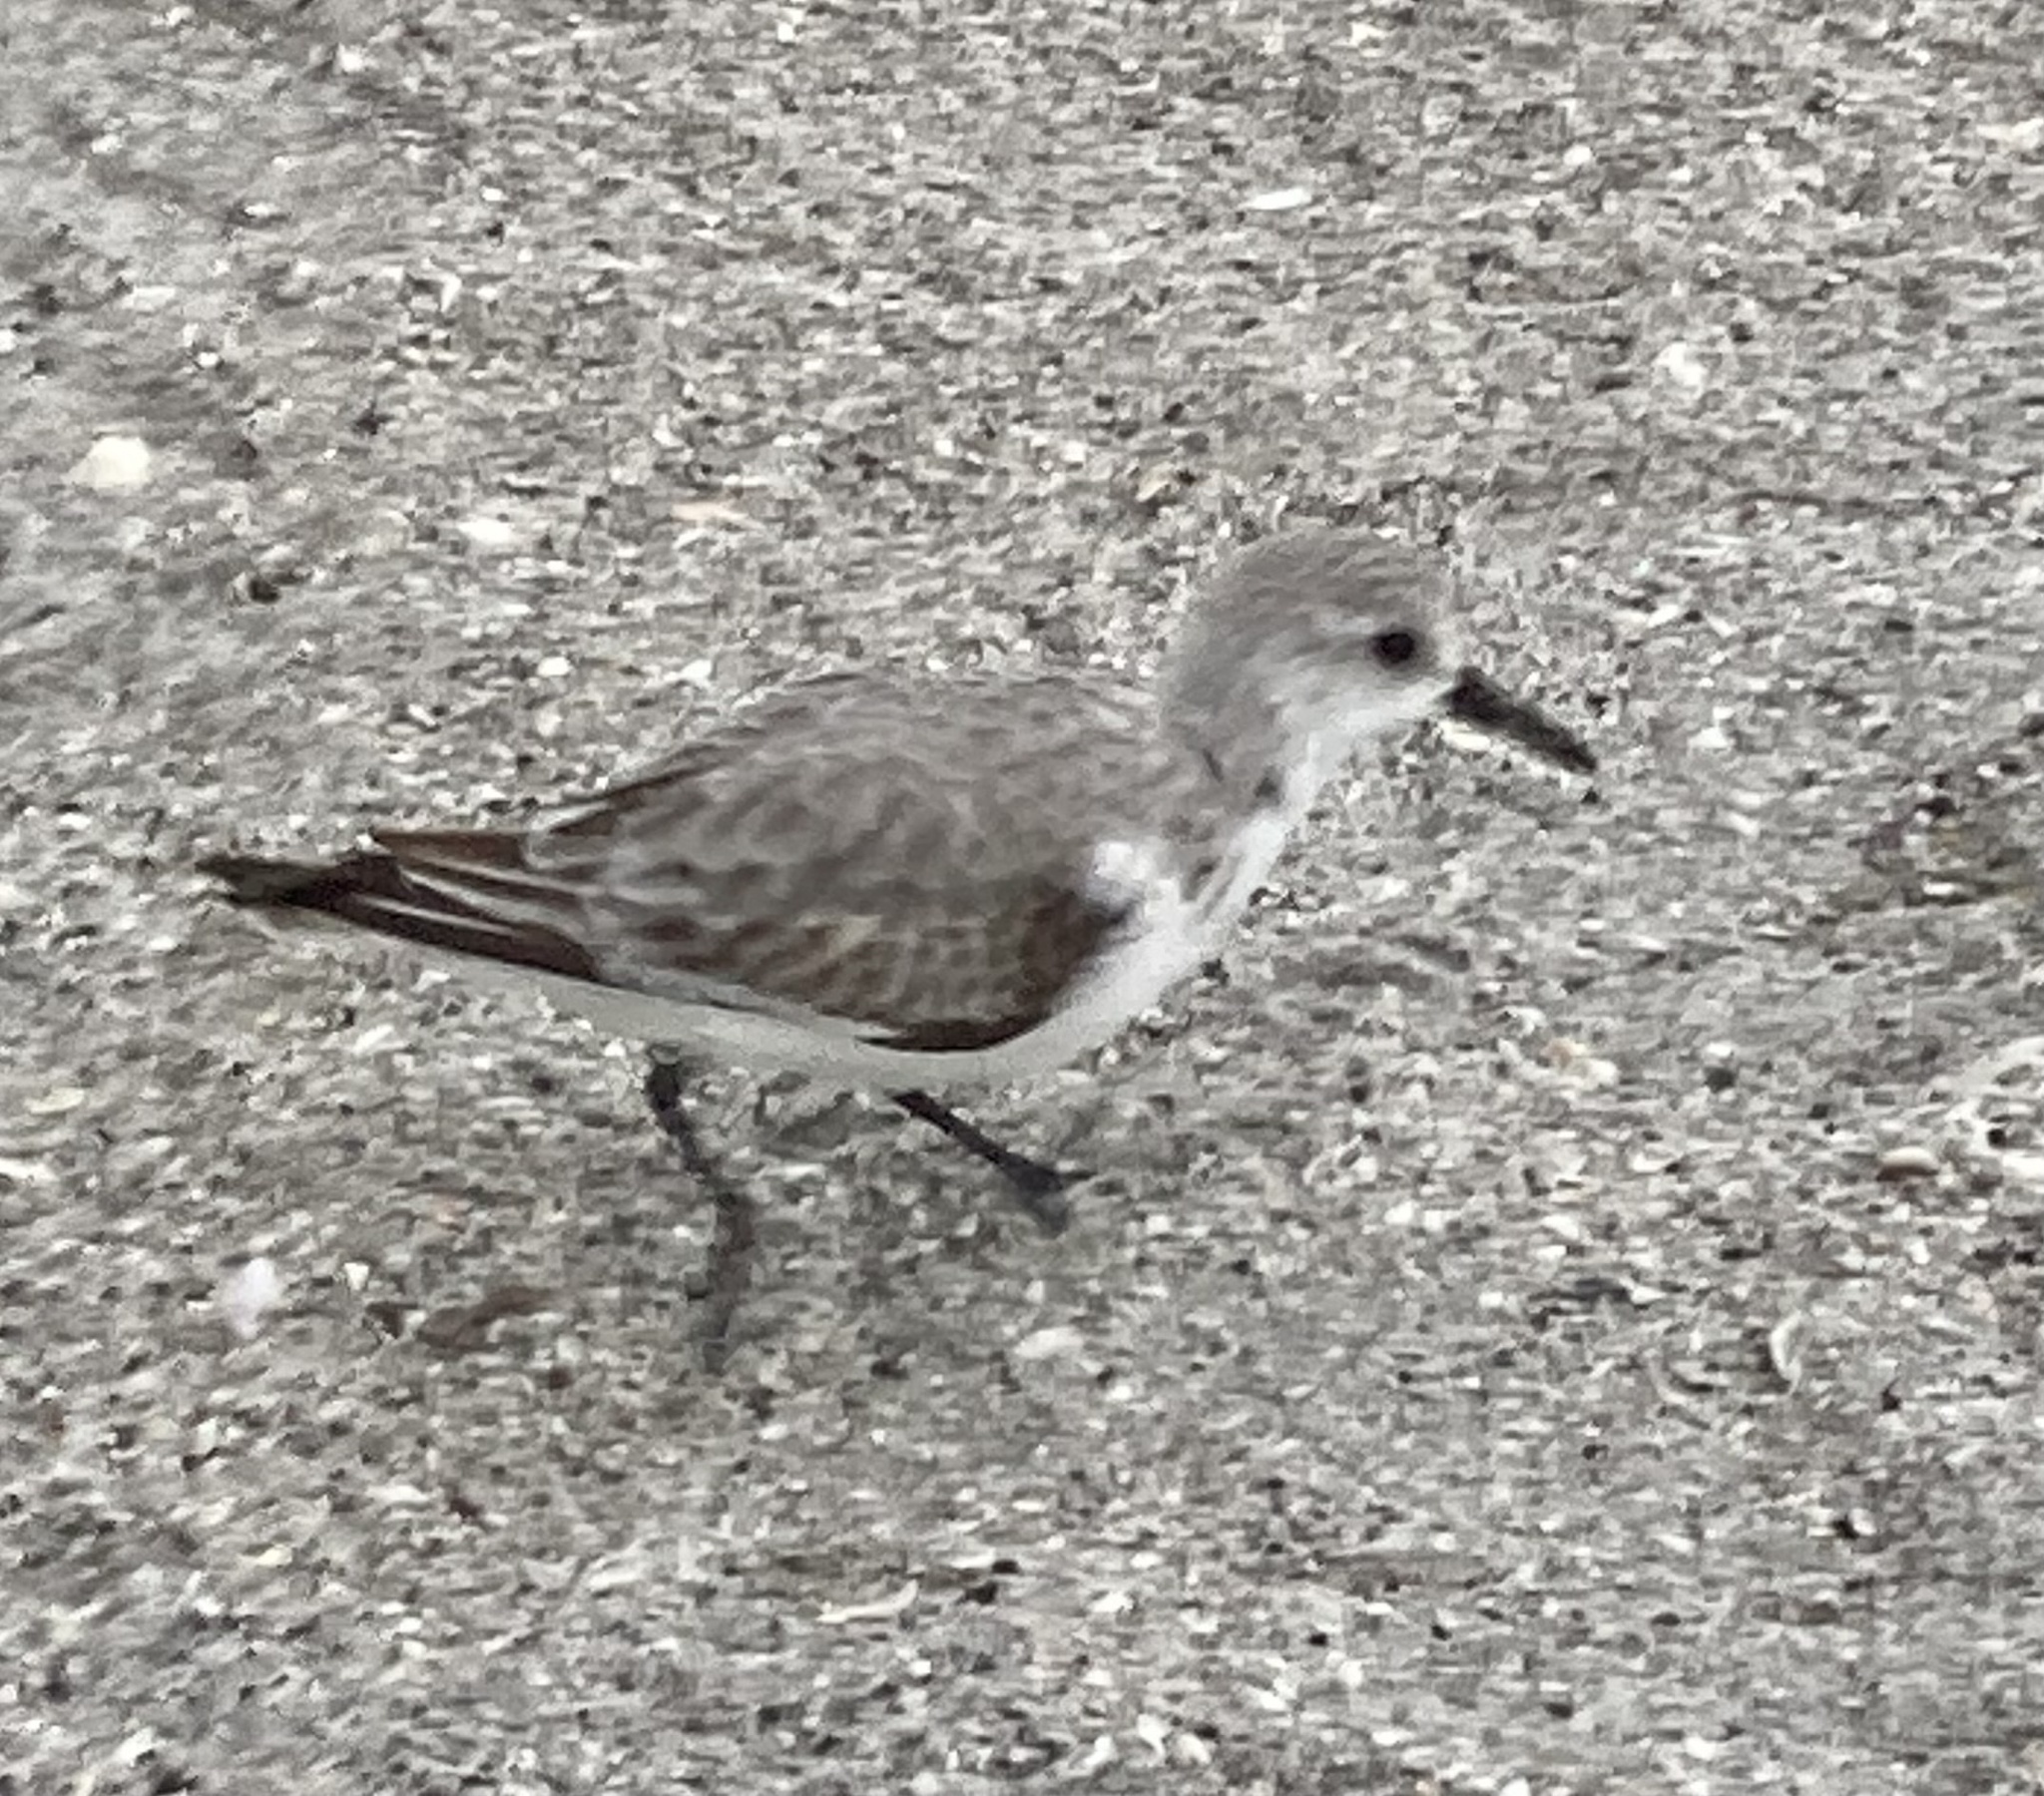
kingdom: Animalia
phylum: Chordata
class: Aves
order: Charadriiformes
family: Scolopacidae
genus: Calidris
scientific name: Calidris alba
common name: Sanderling
